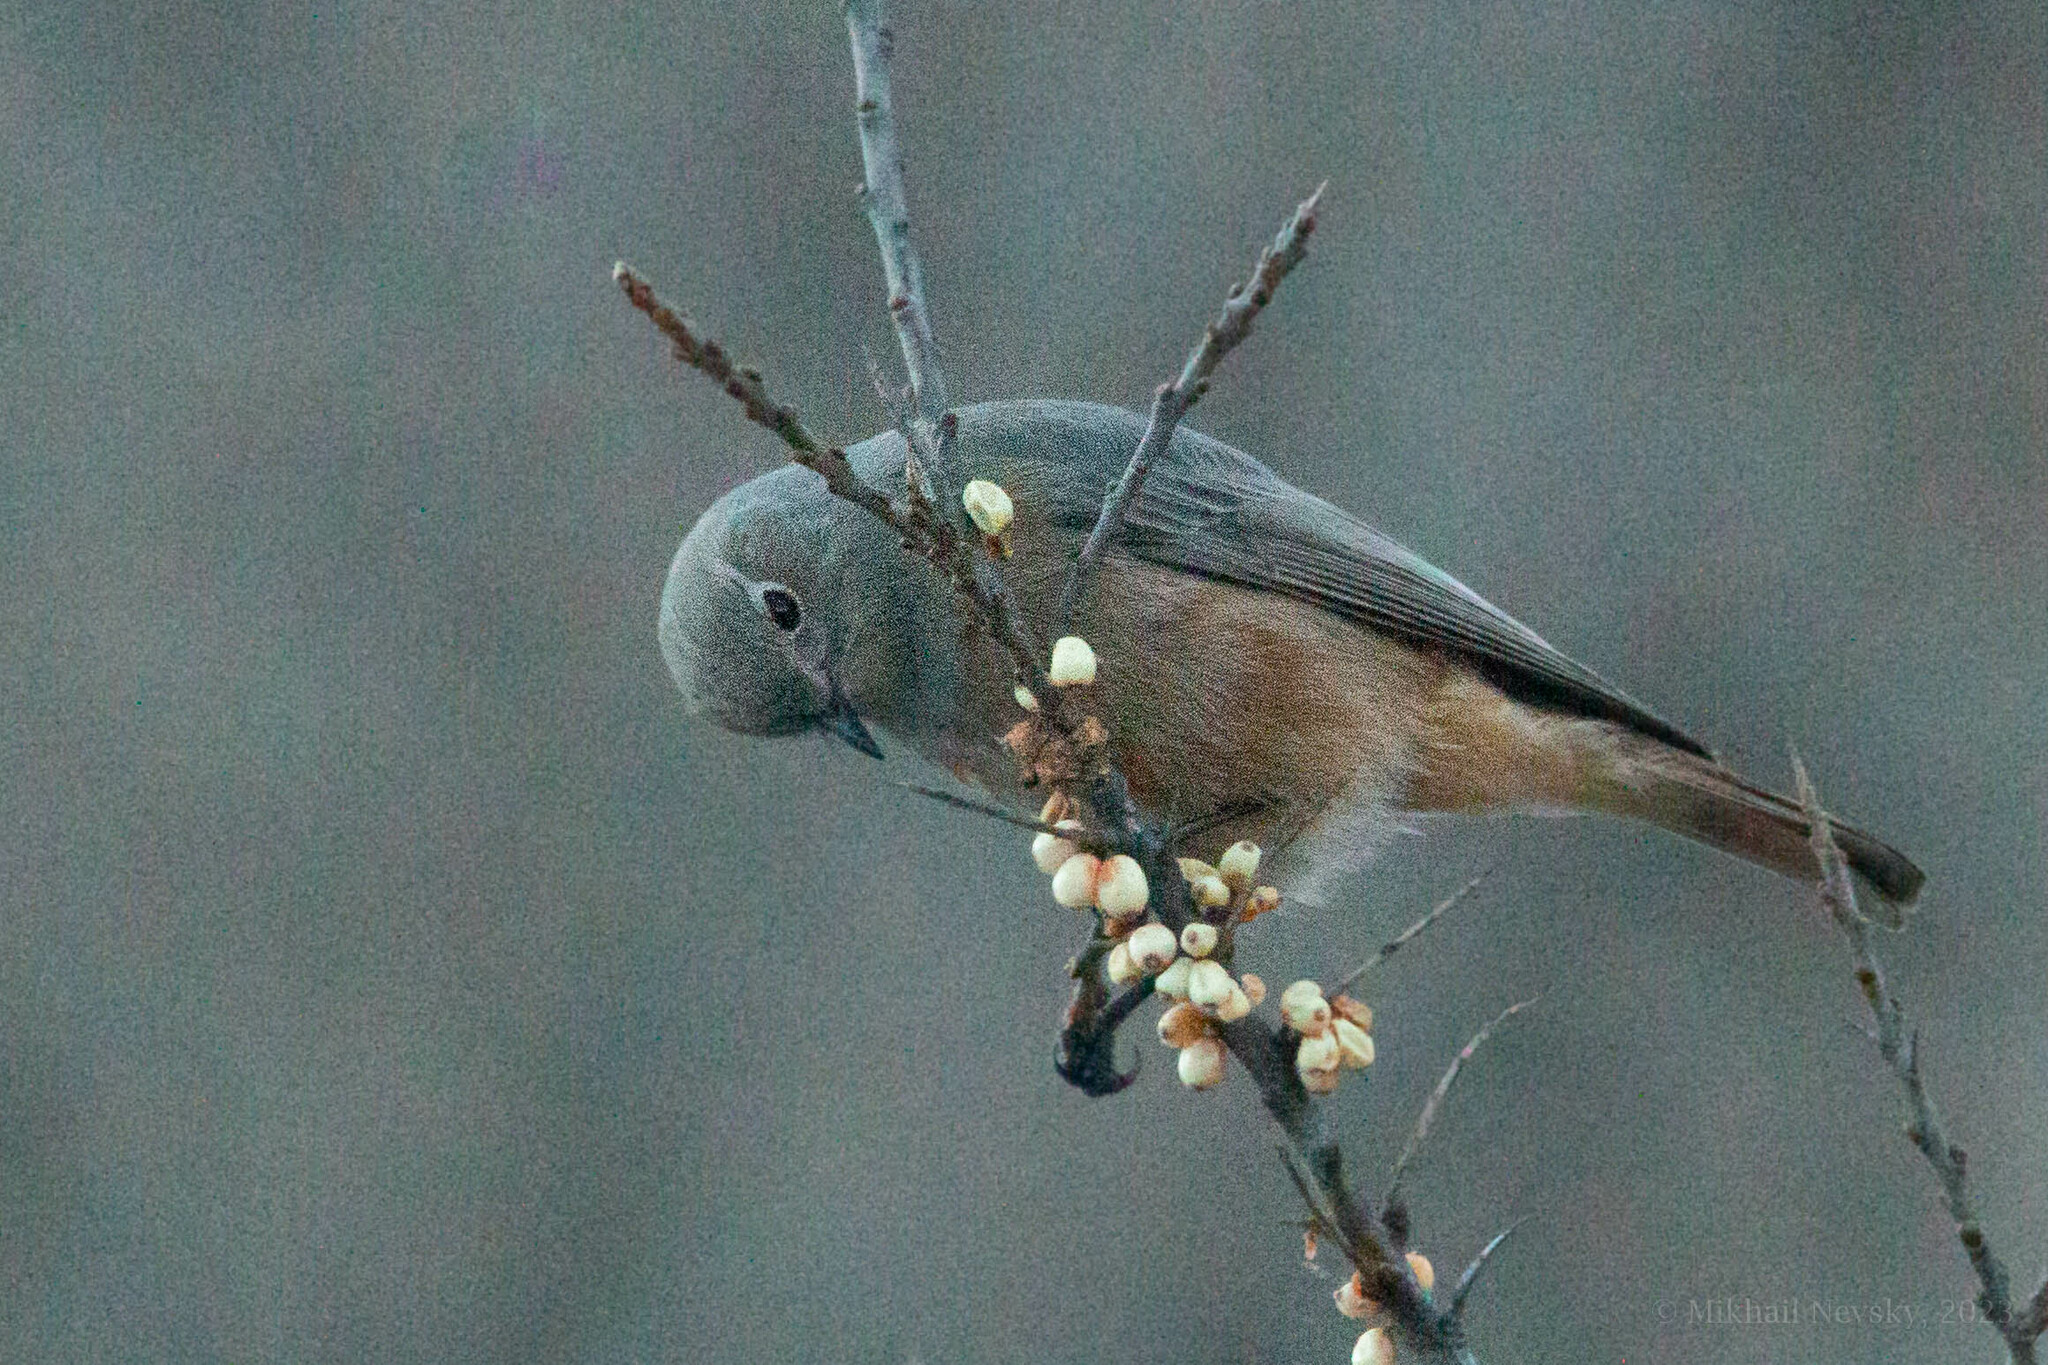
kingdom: Animalia
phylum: Chordata
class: Aves
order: Passeriformes
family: Muscicapidae
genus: Phoenicurus
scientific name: Phoenicurus ochruros
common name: Black redstart
